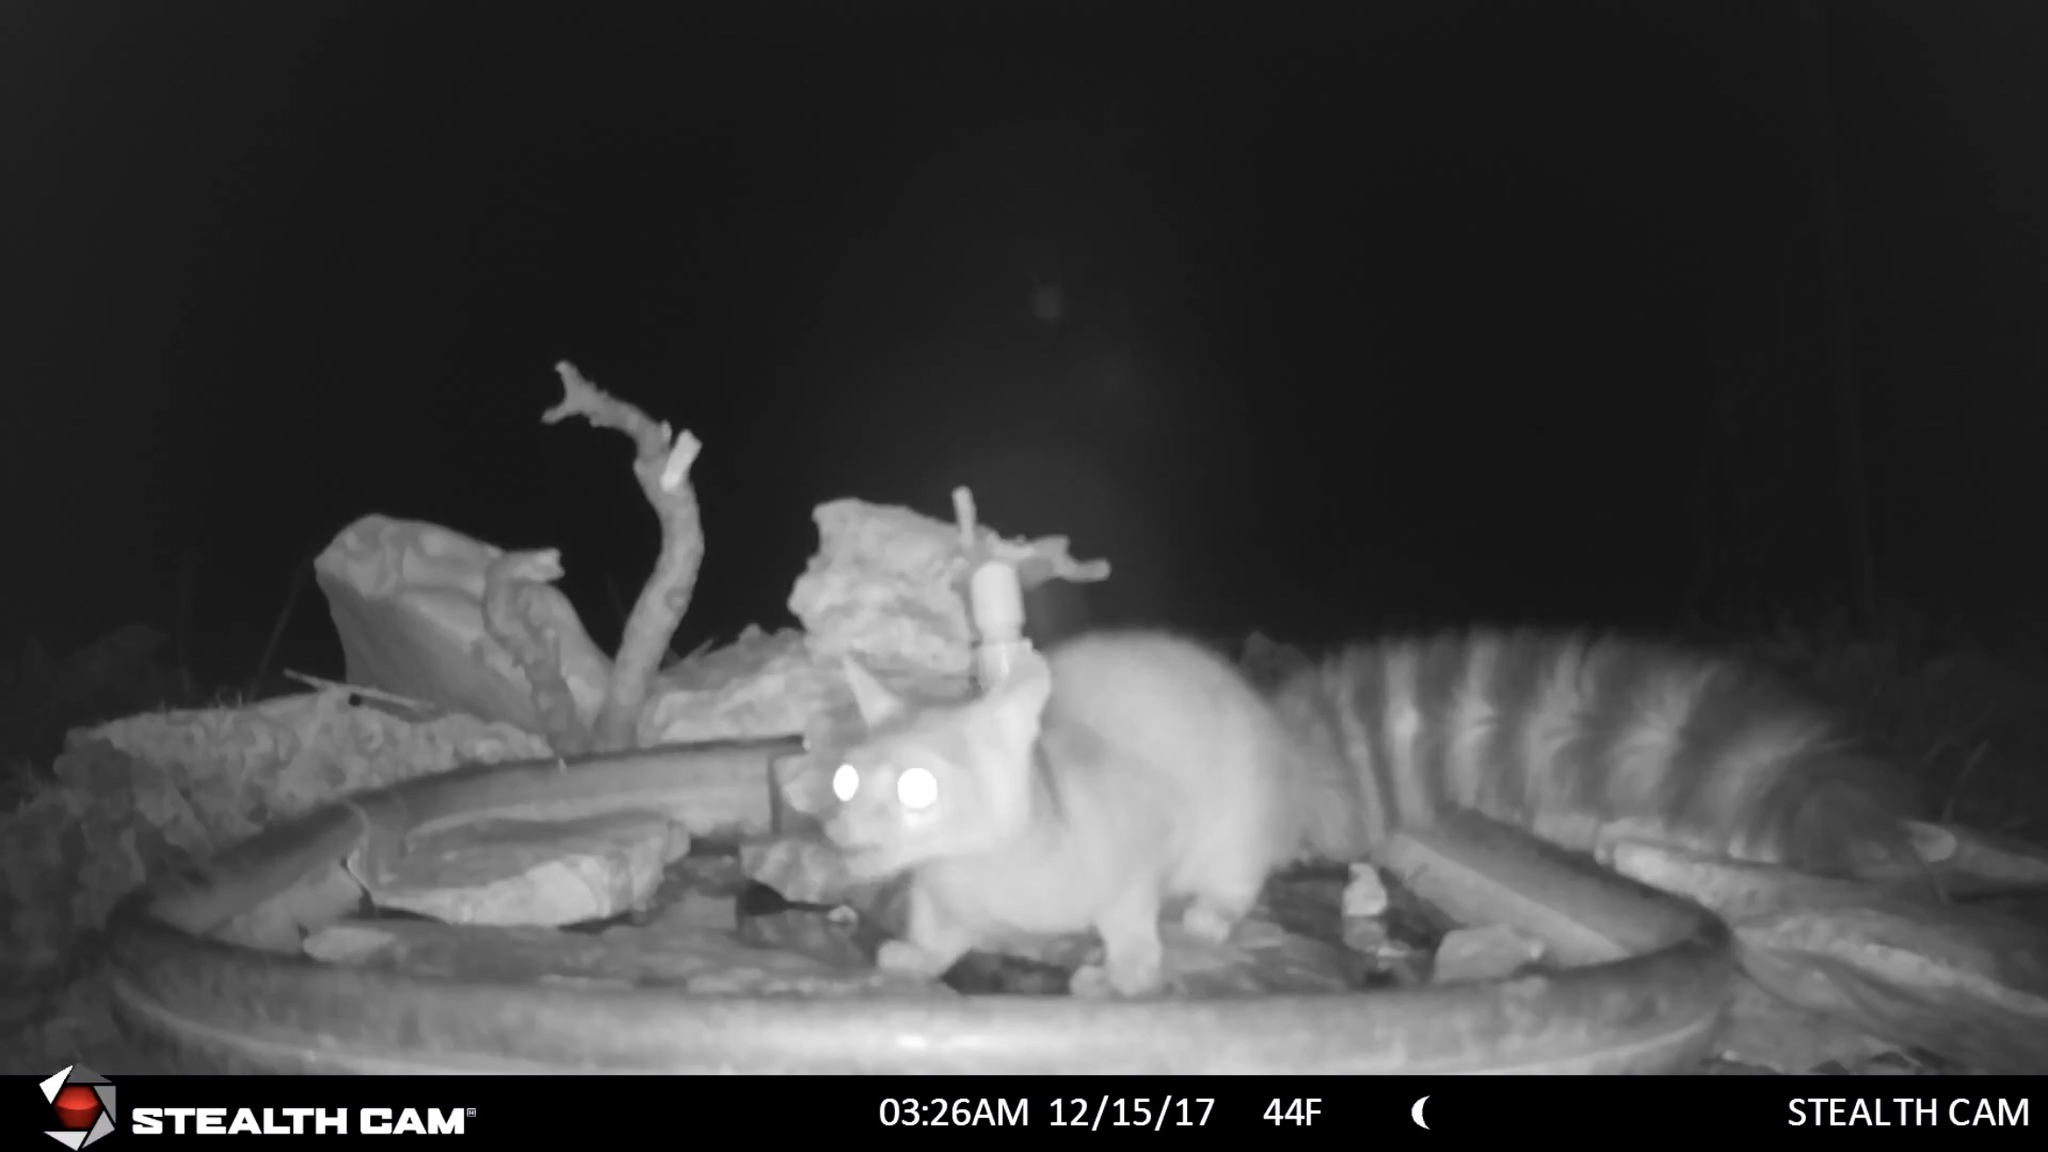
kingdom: Animalia
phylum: Chordata
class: Mammalia
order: Carnivora
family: Procyonidae
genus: Bassariscus
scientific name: Bassariscus astutus
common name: Ringtail
